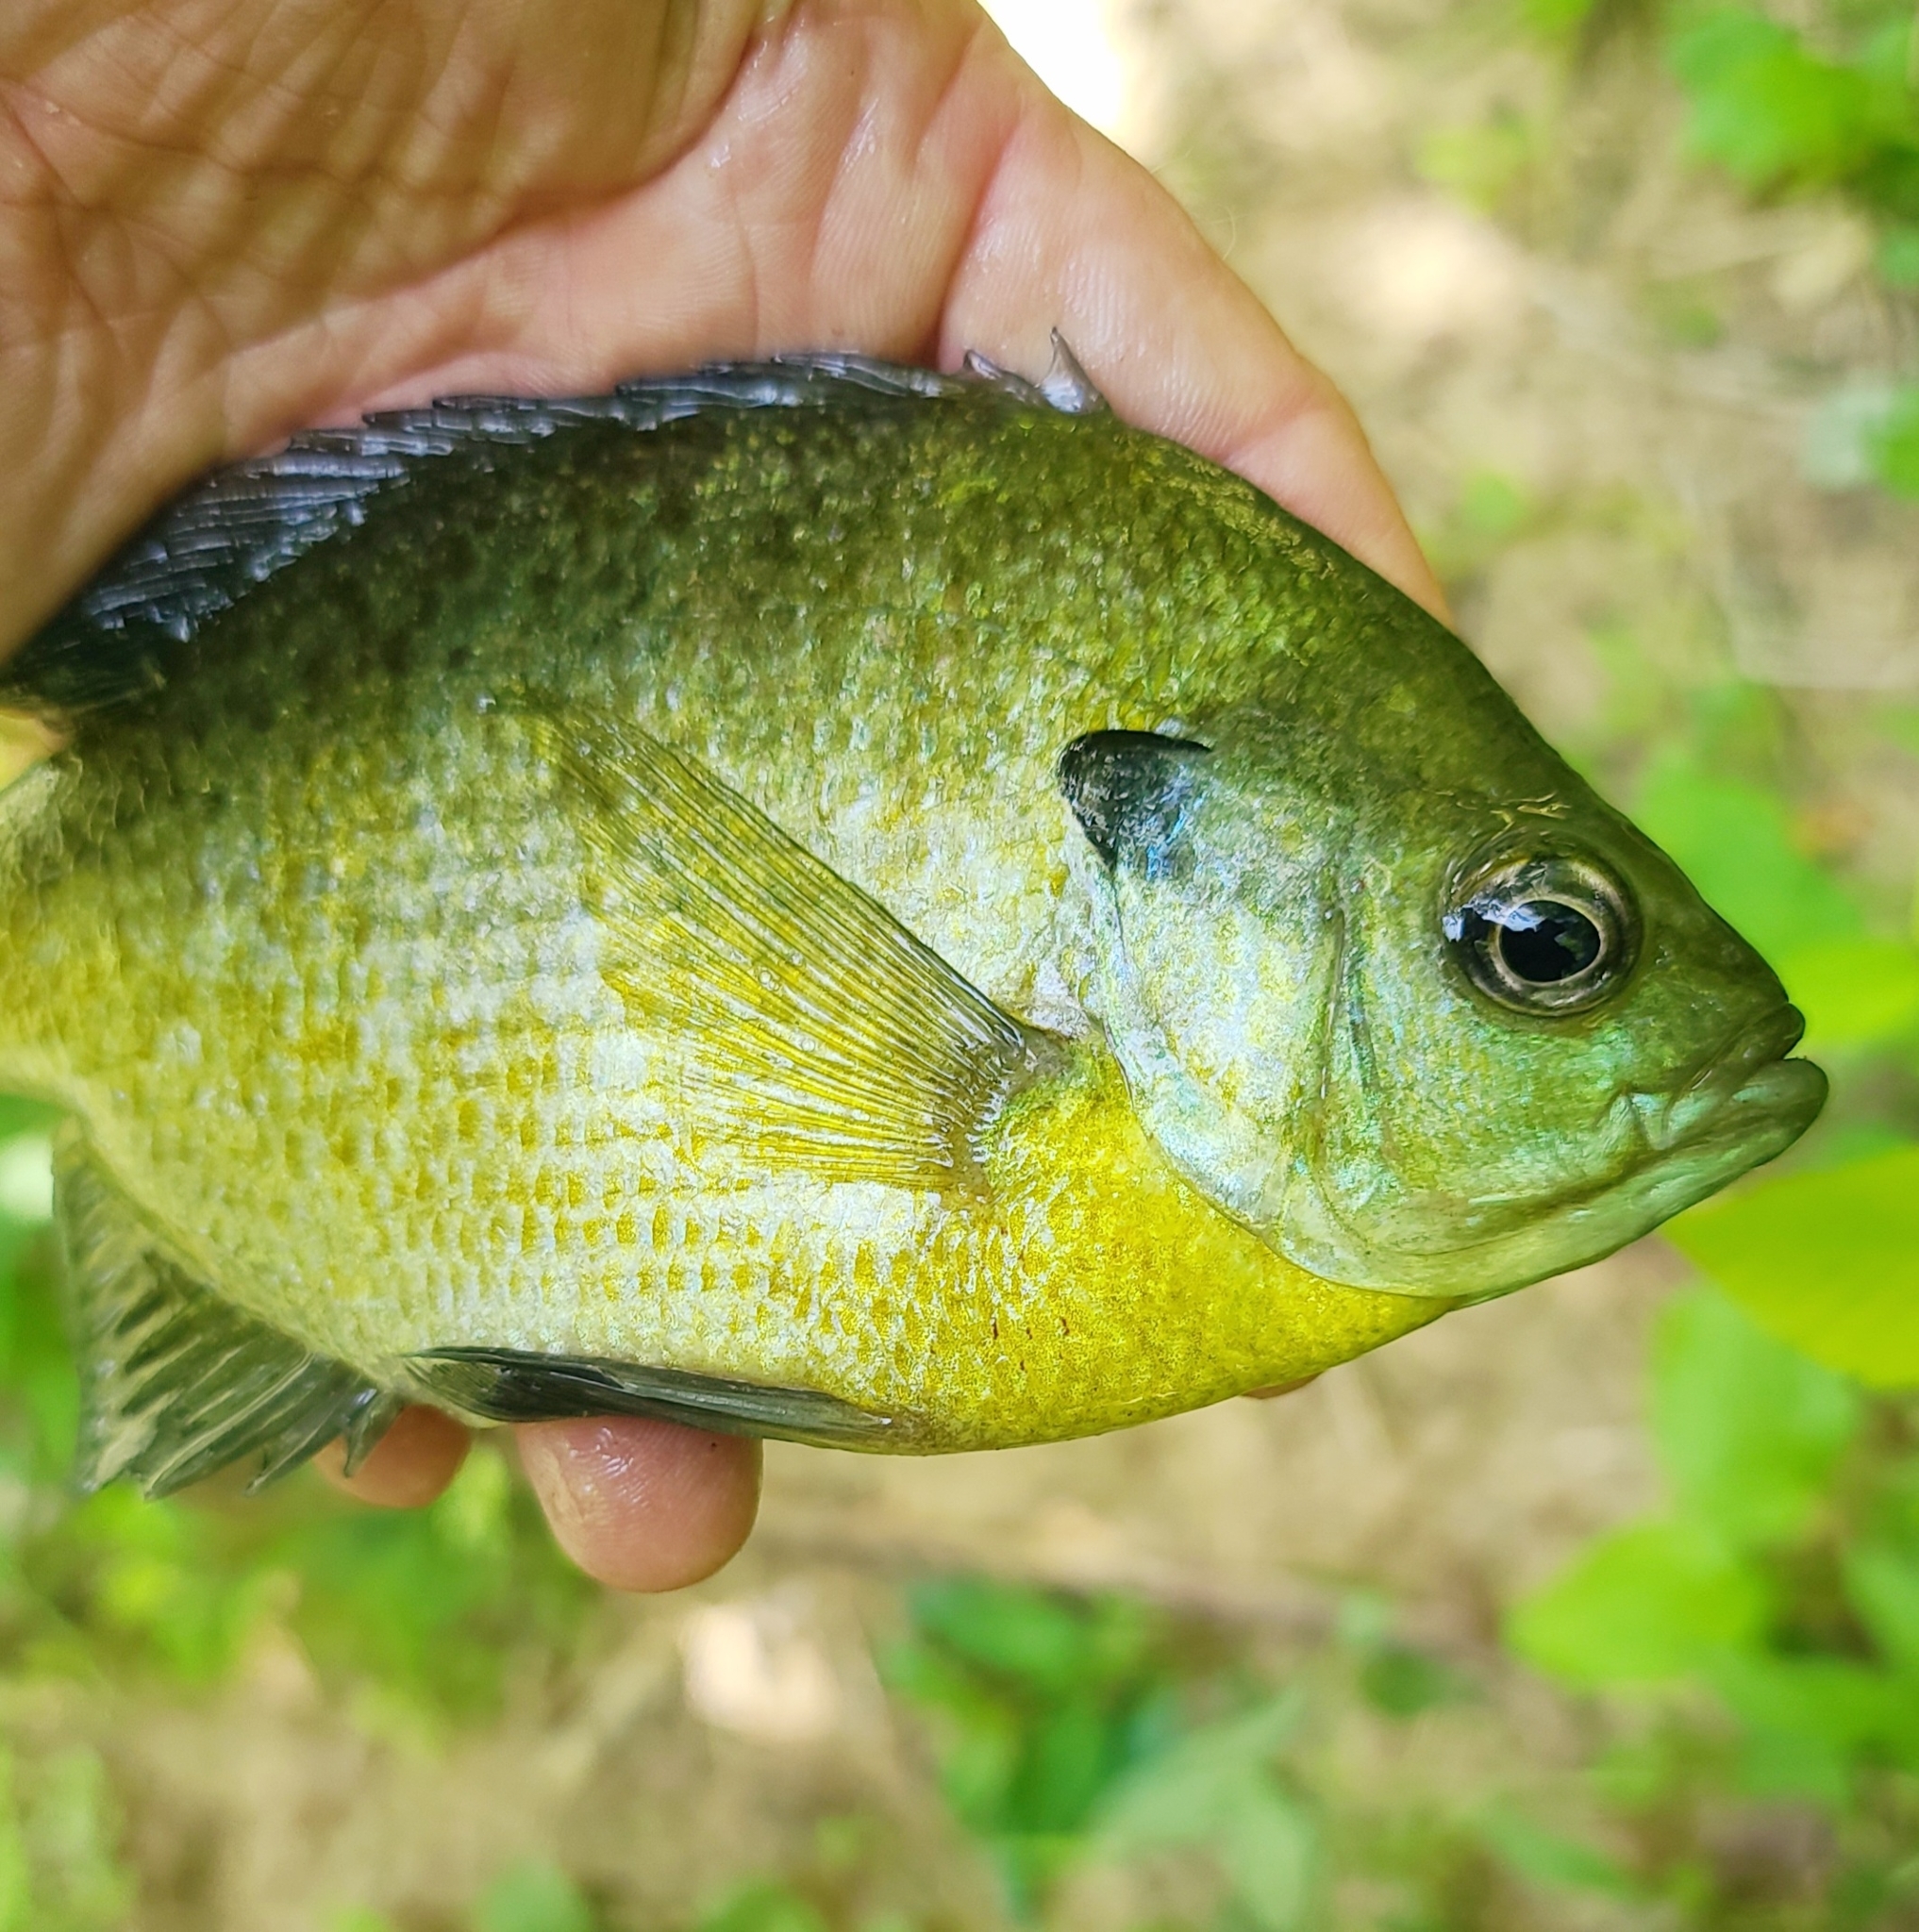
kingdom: Animalia
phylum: Chordata
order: Perciformes
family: Centrarchidae
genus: Lepomis
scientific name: Lepomis macrochirus
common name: Bluegill
